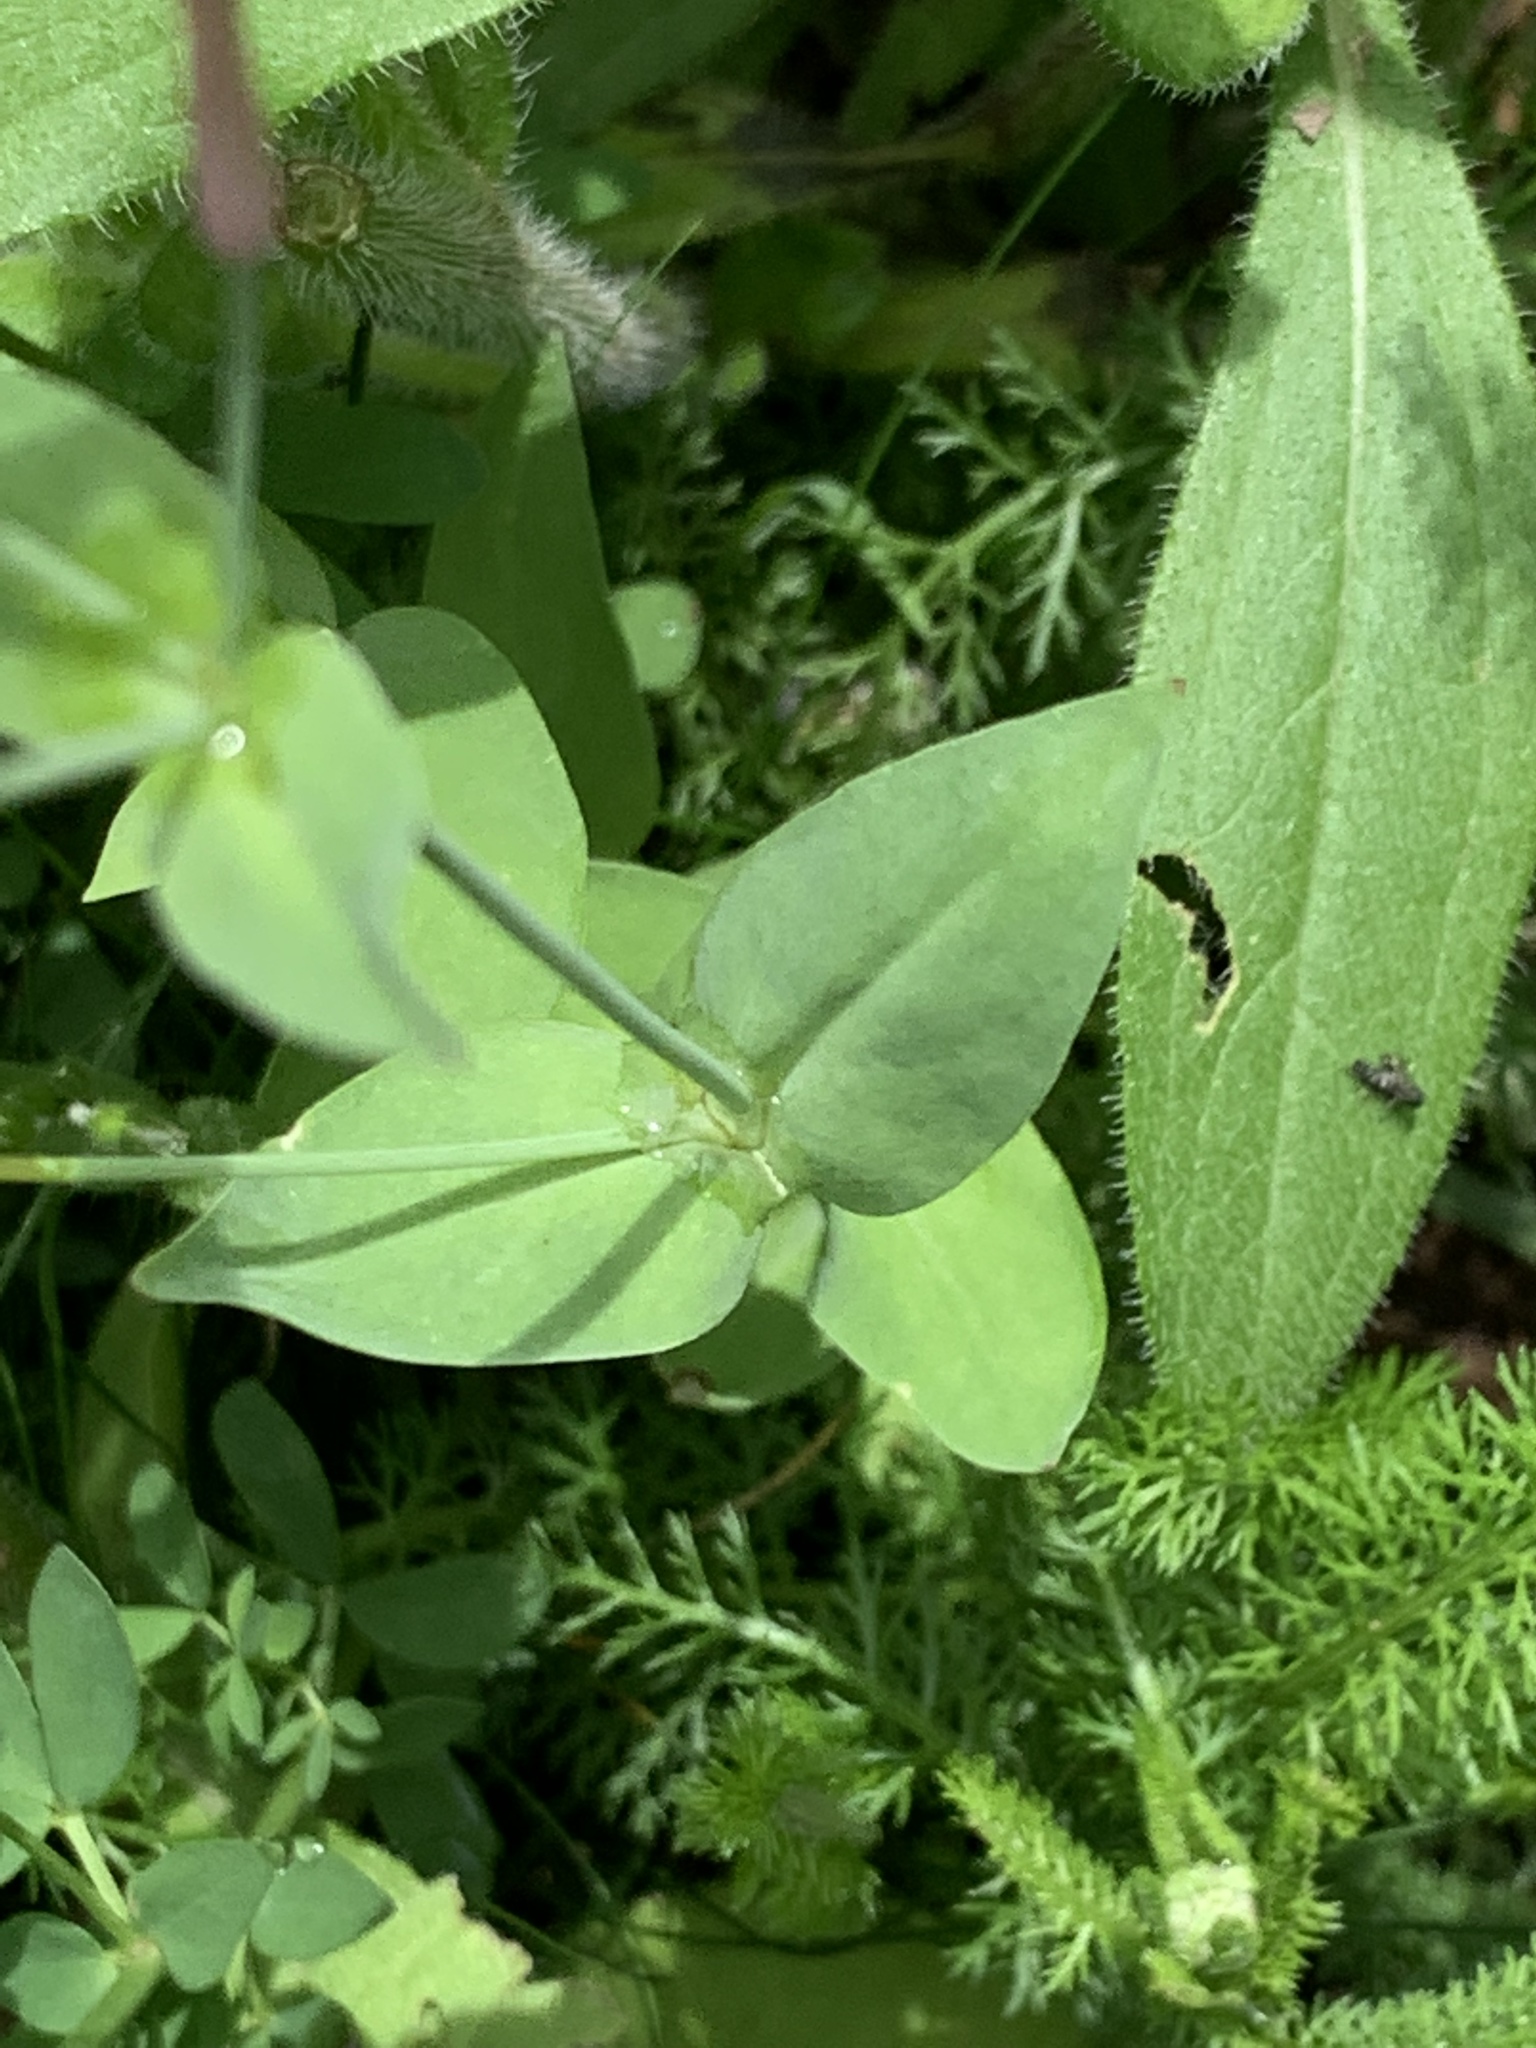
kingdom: Plantae
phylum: Tracheophyta
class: Magnoliopsida
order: Caryophyllales
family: Caryophyllaceae
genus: Atocion
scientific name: Atocion armeria
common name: Sweet william catchfly
